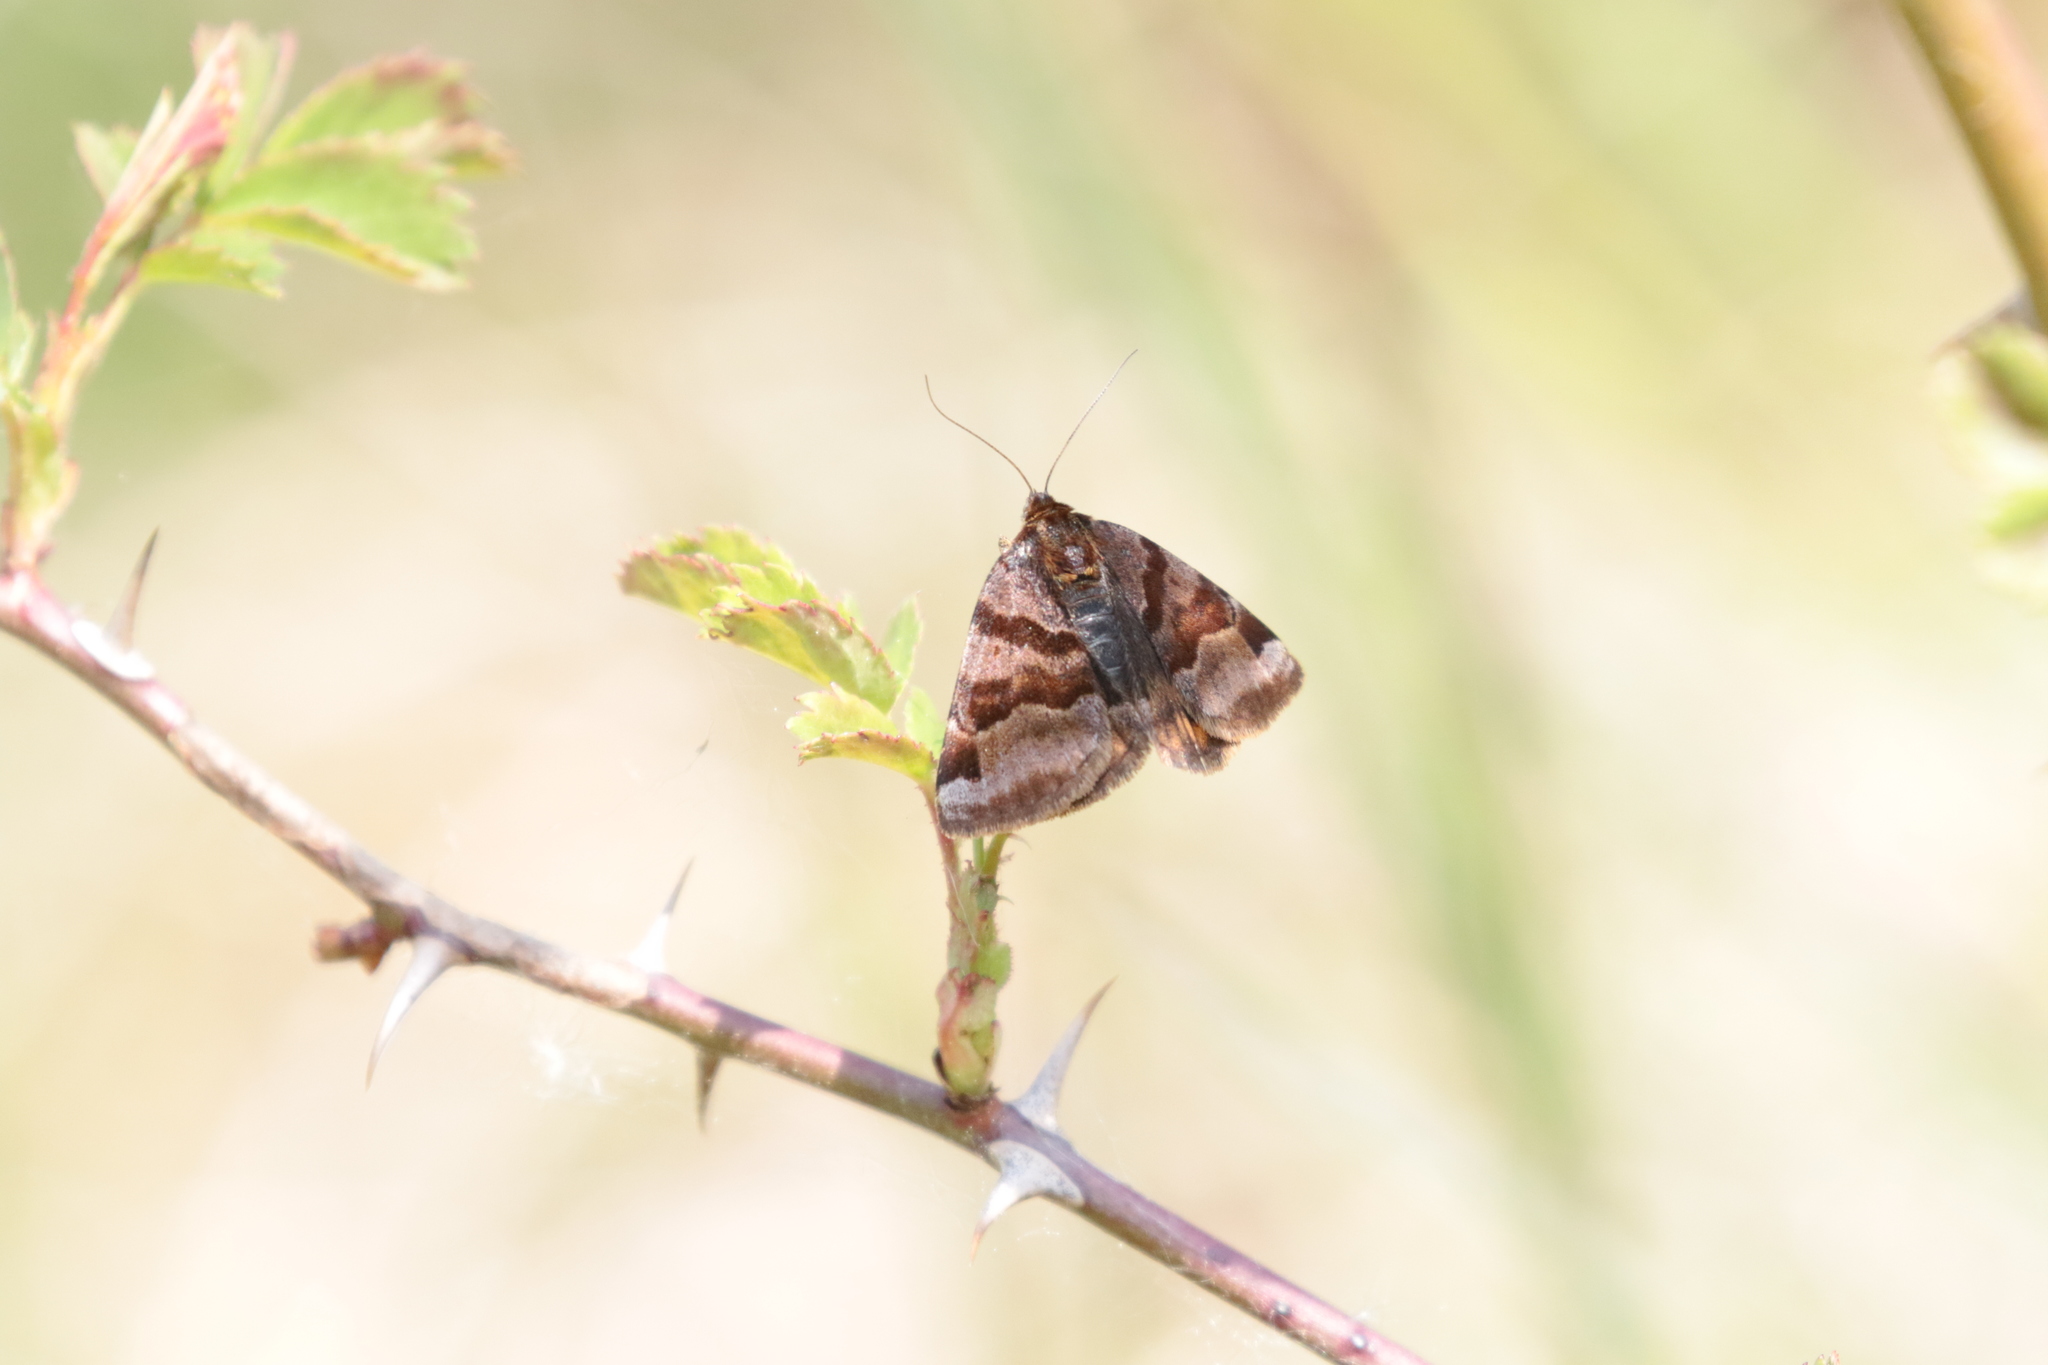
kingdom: Animalia
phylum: Arthropoda
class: Insecta
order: Lepidoptera
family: Erebidae
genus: Euclidia
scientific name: Euclidia glyphica
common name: Burnet companion
